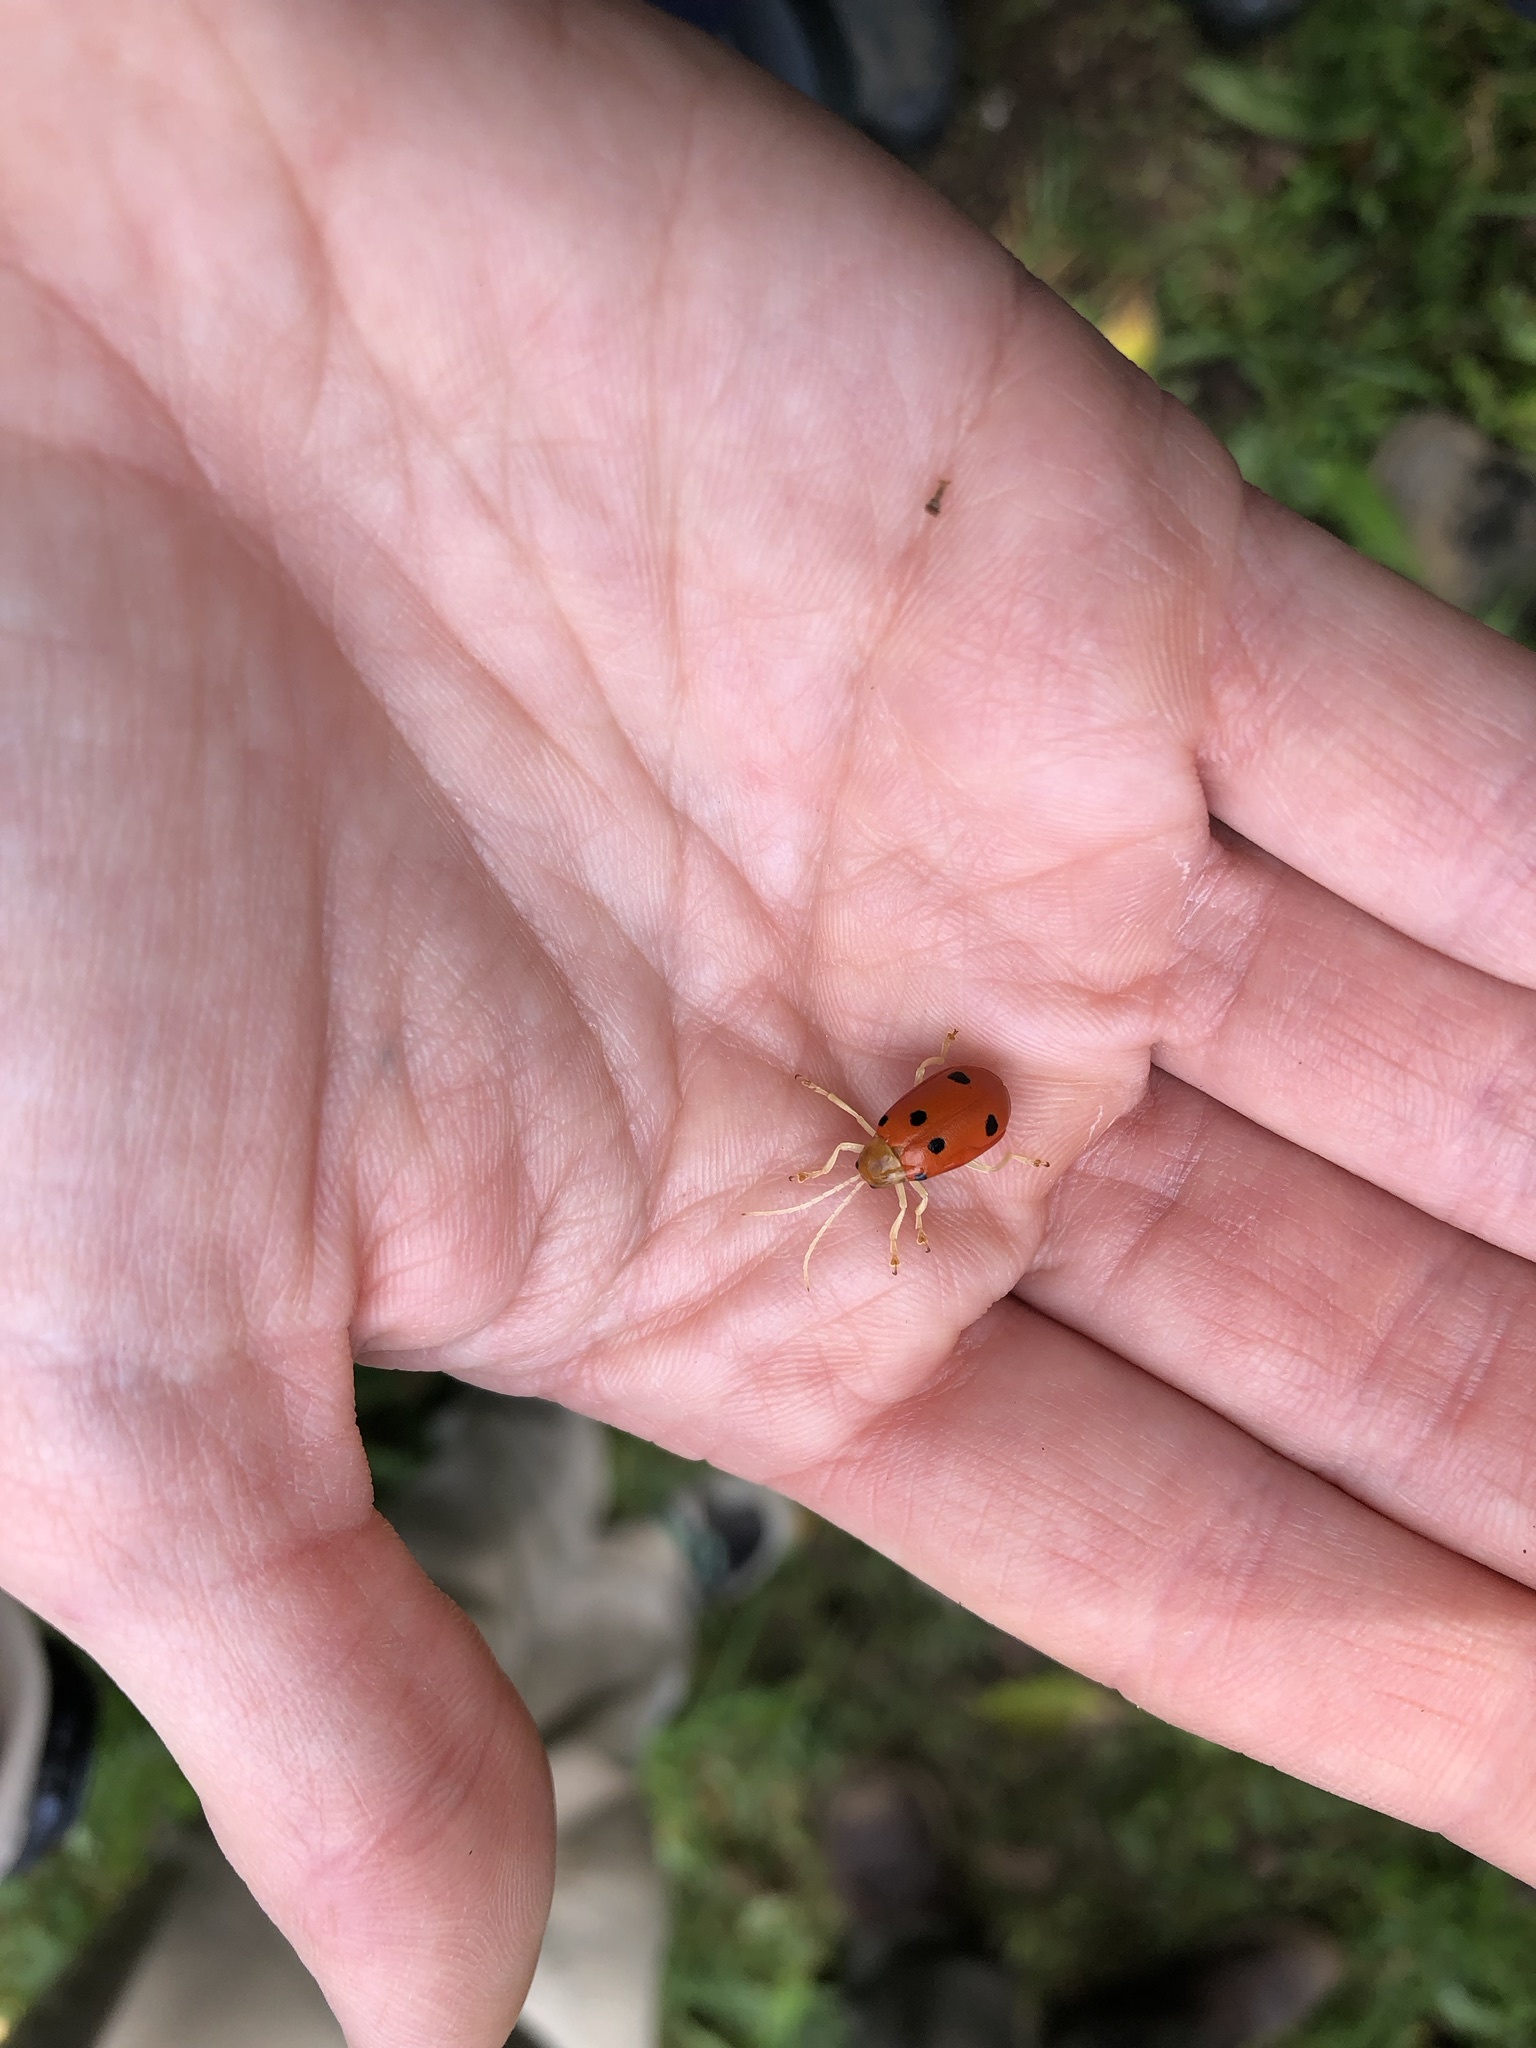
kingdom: Animalia
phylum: Arthropoda
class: Insecta
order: Coleoptera
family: Chrysomelidae
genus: Isotes
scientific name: Isotes
